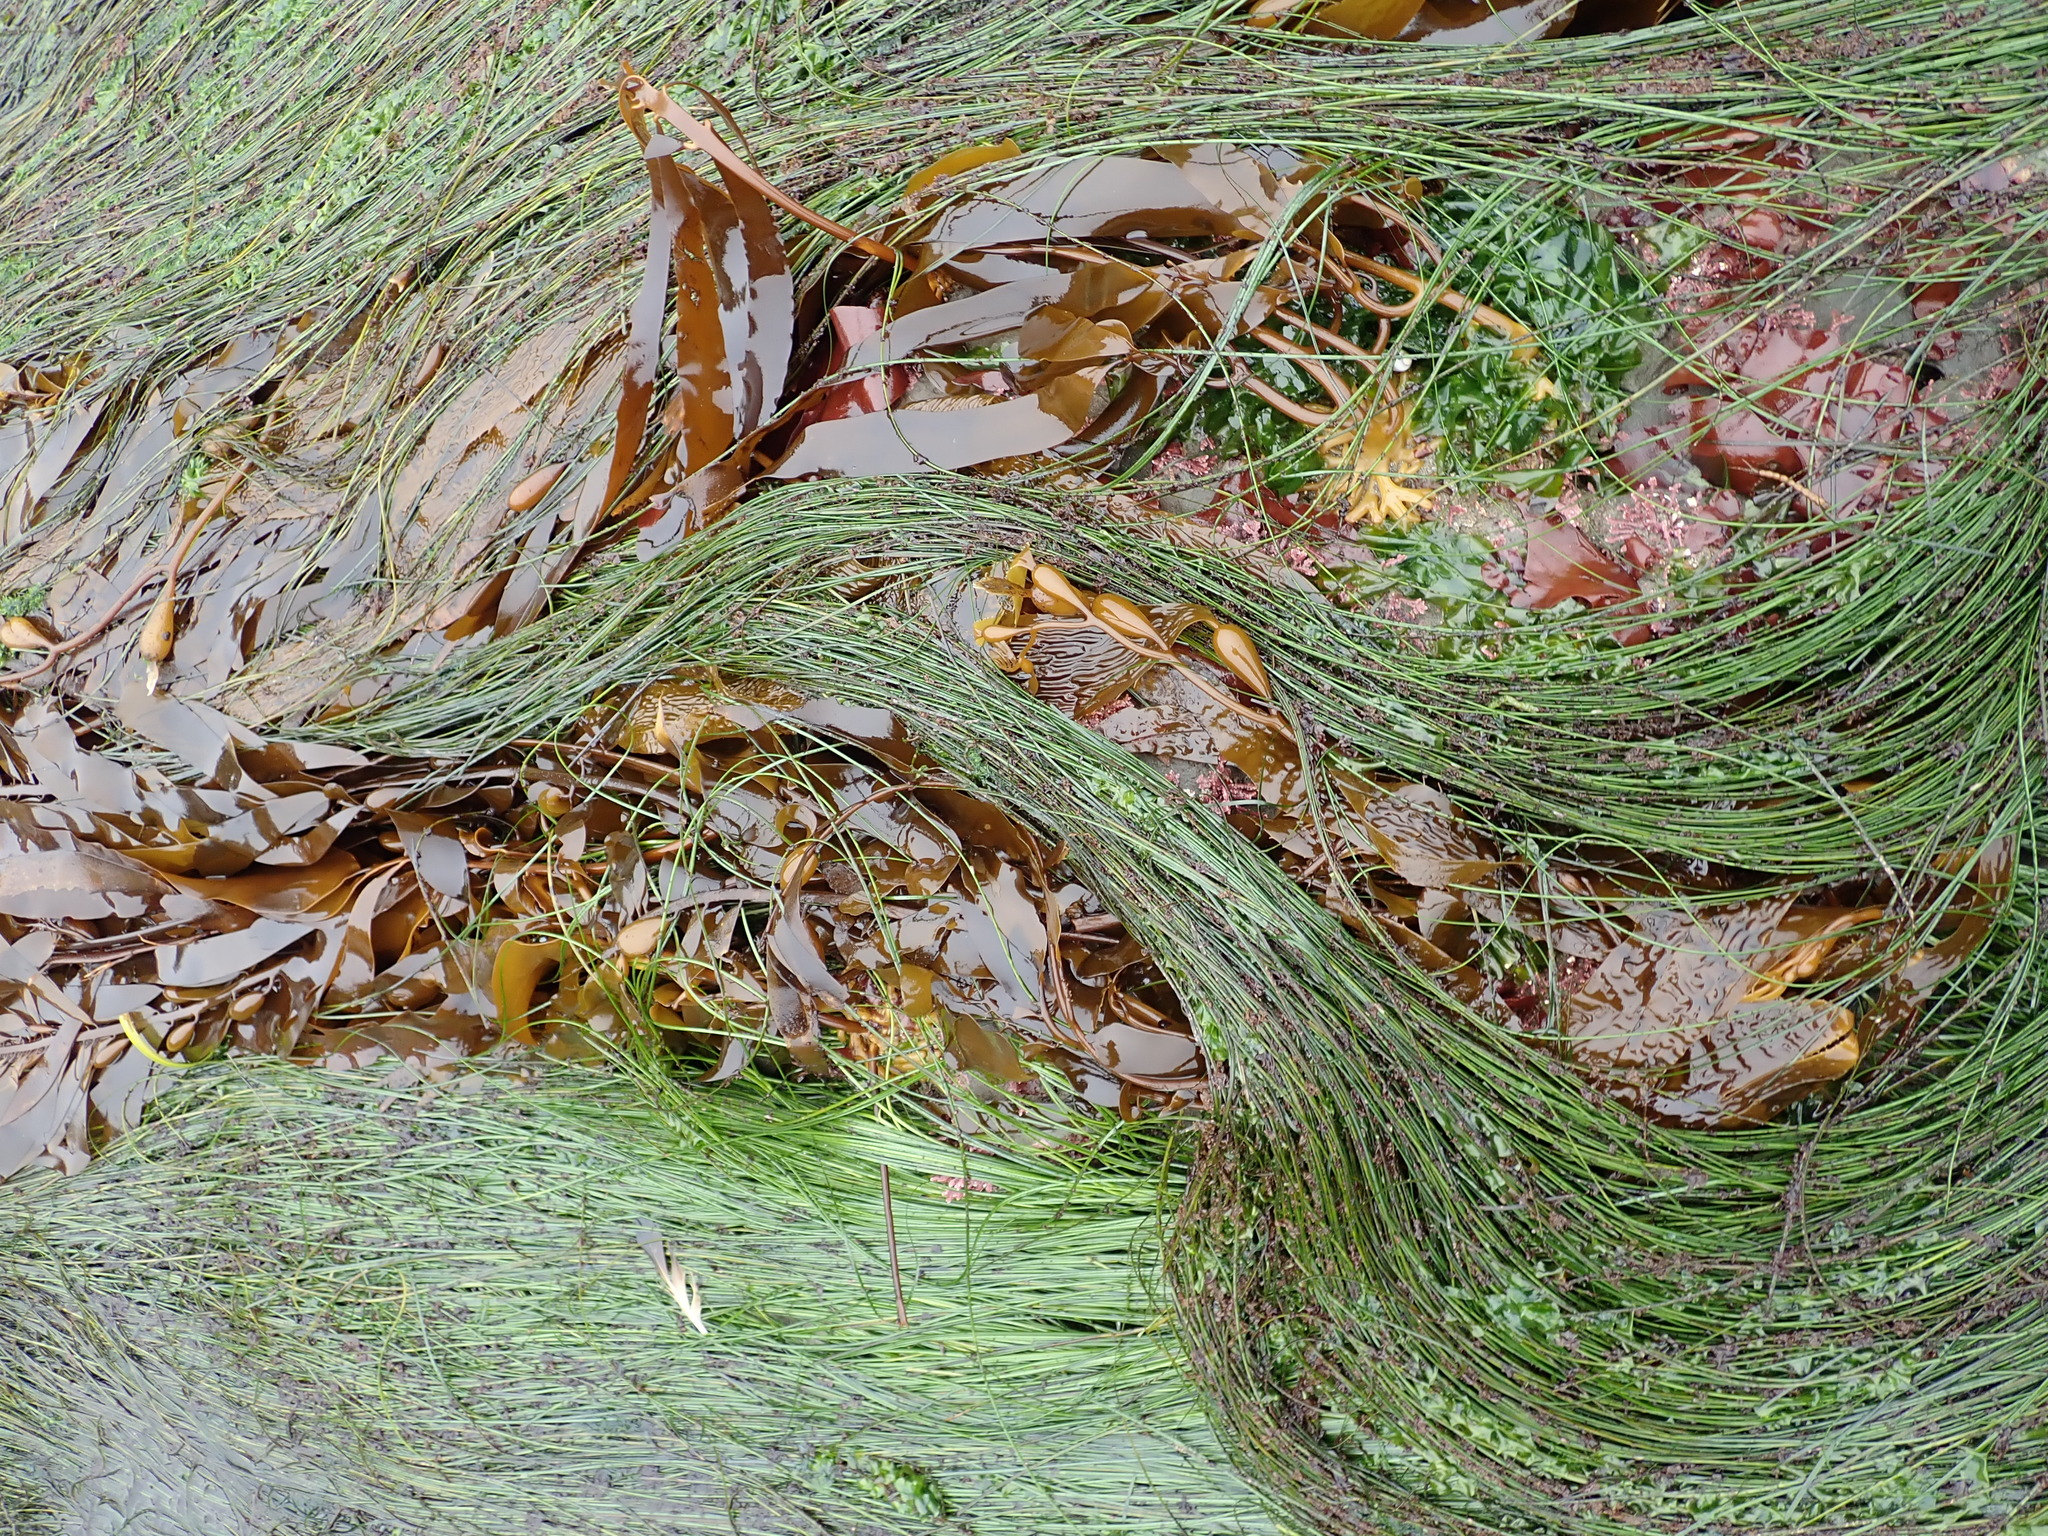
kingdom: Plantae
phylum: Tracheophyta
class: Liliopsida
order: Alismatales
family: Zosteraceae
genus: Phyllospadix
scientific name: Phyllospadix torreyi
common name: Surfgrass
